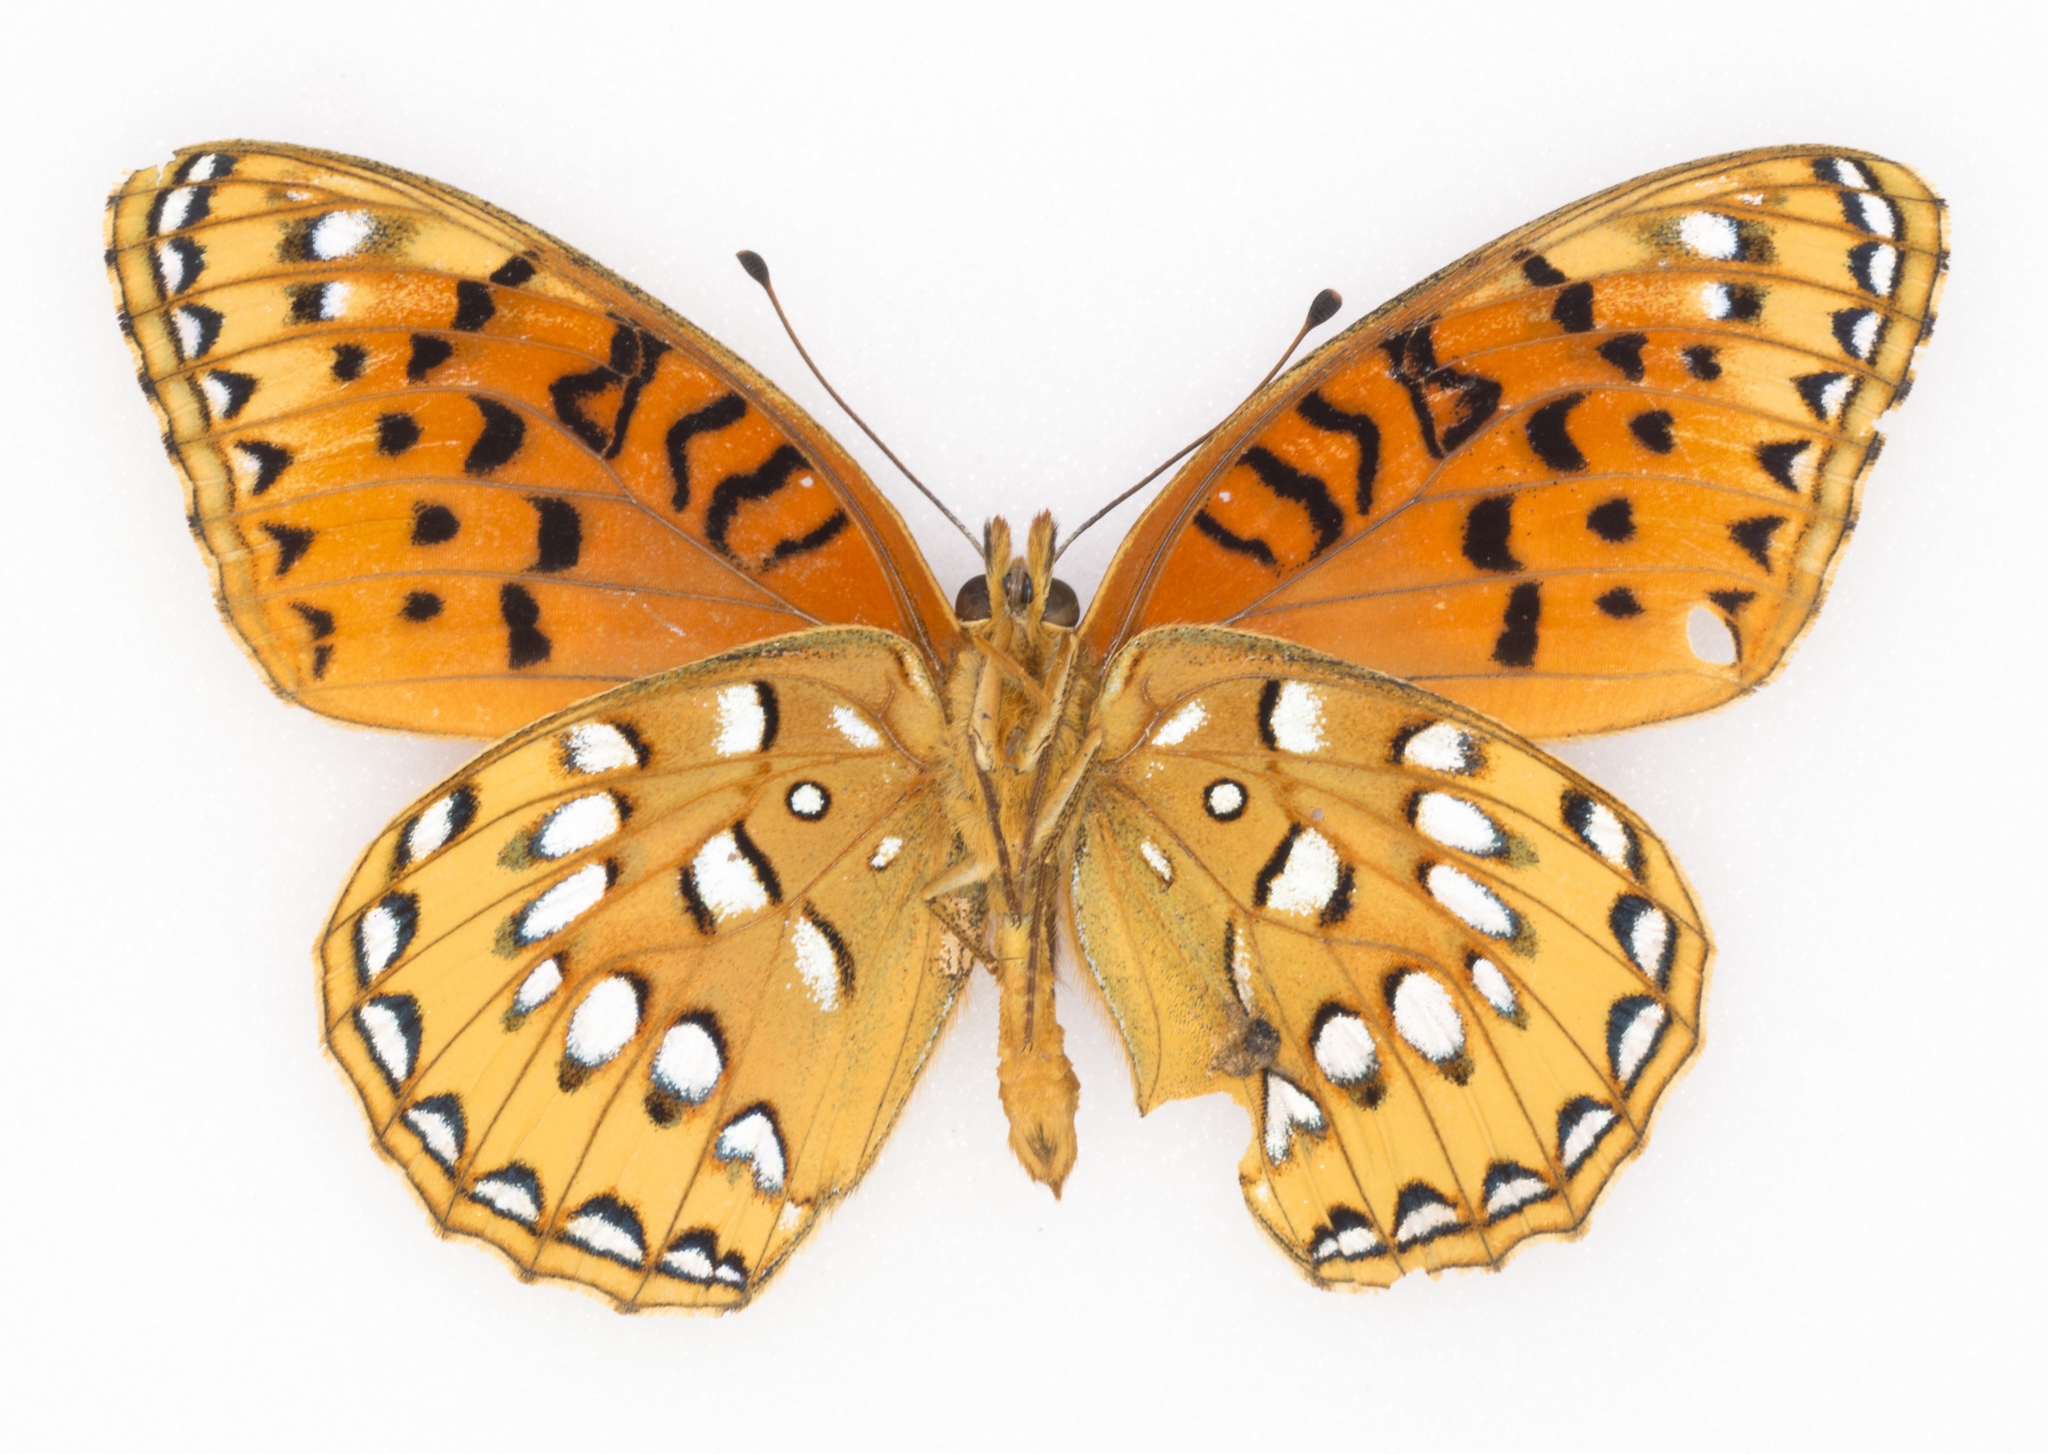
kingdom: Animalia
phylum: Arthropoda
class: Insecta
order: Lepidoptera
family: Nymphalidae
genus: Speyeria
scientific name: Speyeria nokomis
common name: Nokomis fritillary
